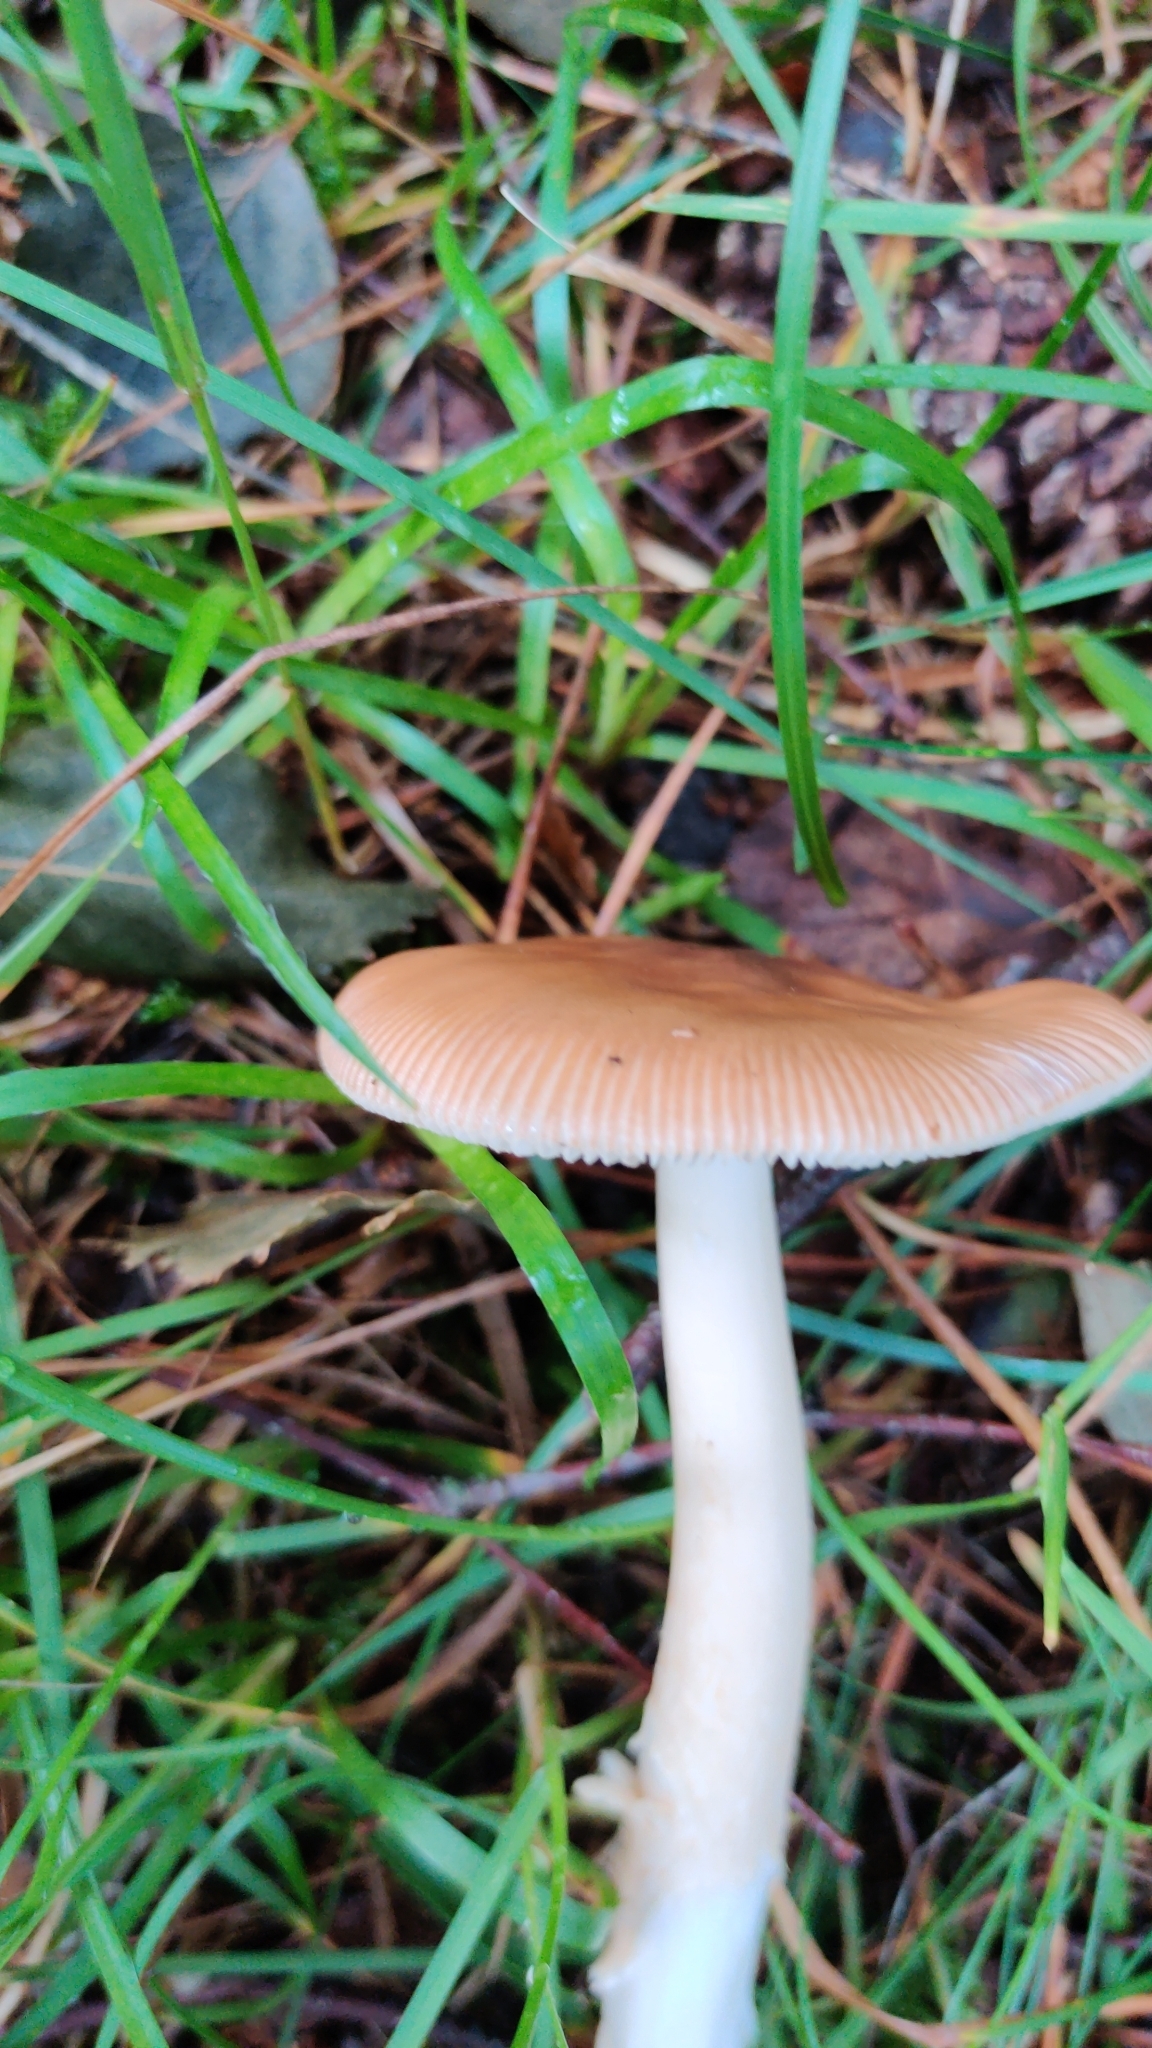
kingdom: Fungi
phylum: Basidiomycota
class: Agaricomycetes
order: Agaricales
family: Amanitaceae
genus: Amanita
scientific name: Amanita fulva
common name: Tawny grisette
